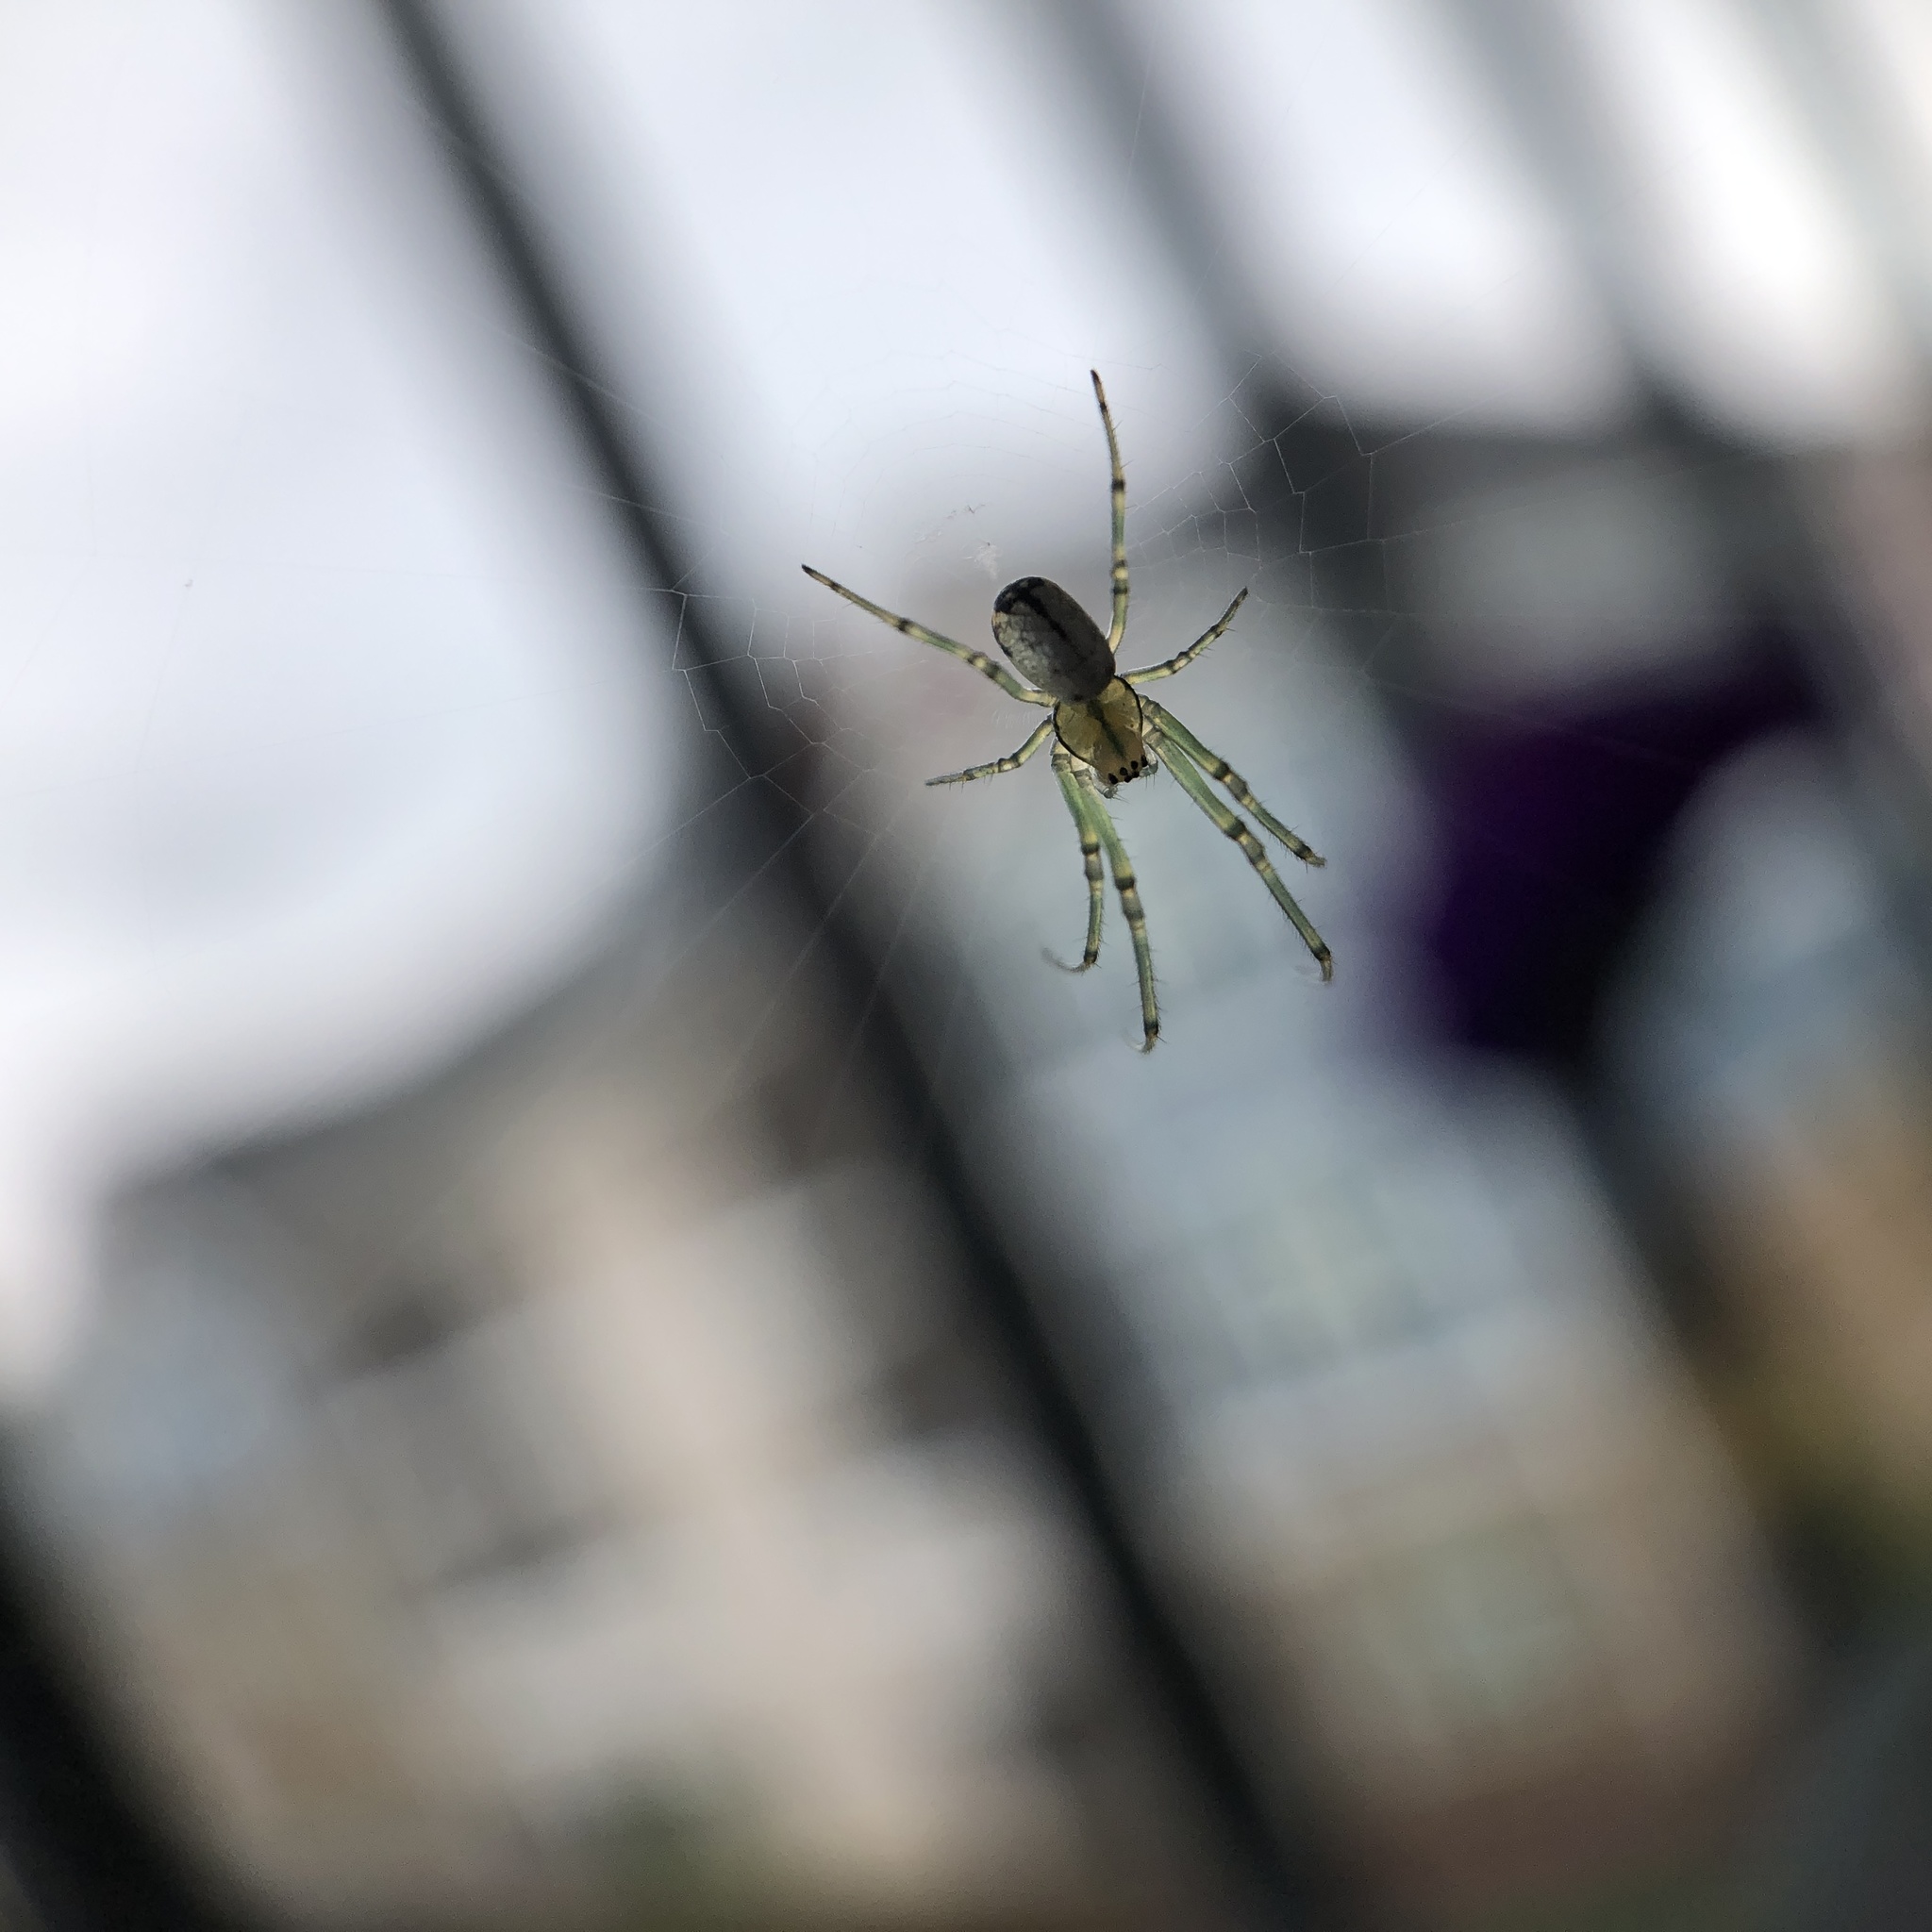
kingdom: Animalia
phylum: Arthropoda
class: Arachnida
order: Araneae
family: Tetragnathidae
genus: Leucauge
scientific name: Leucauge venusta
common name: Longjawed orb weavers
